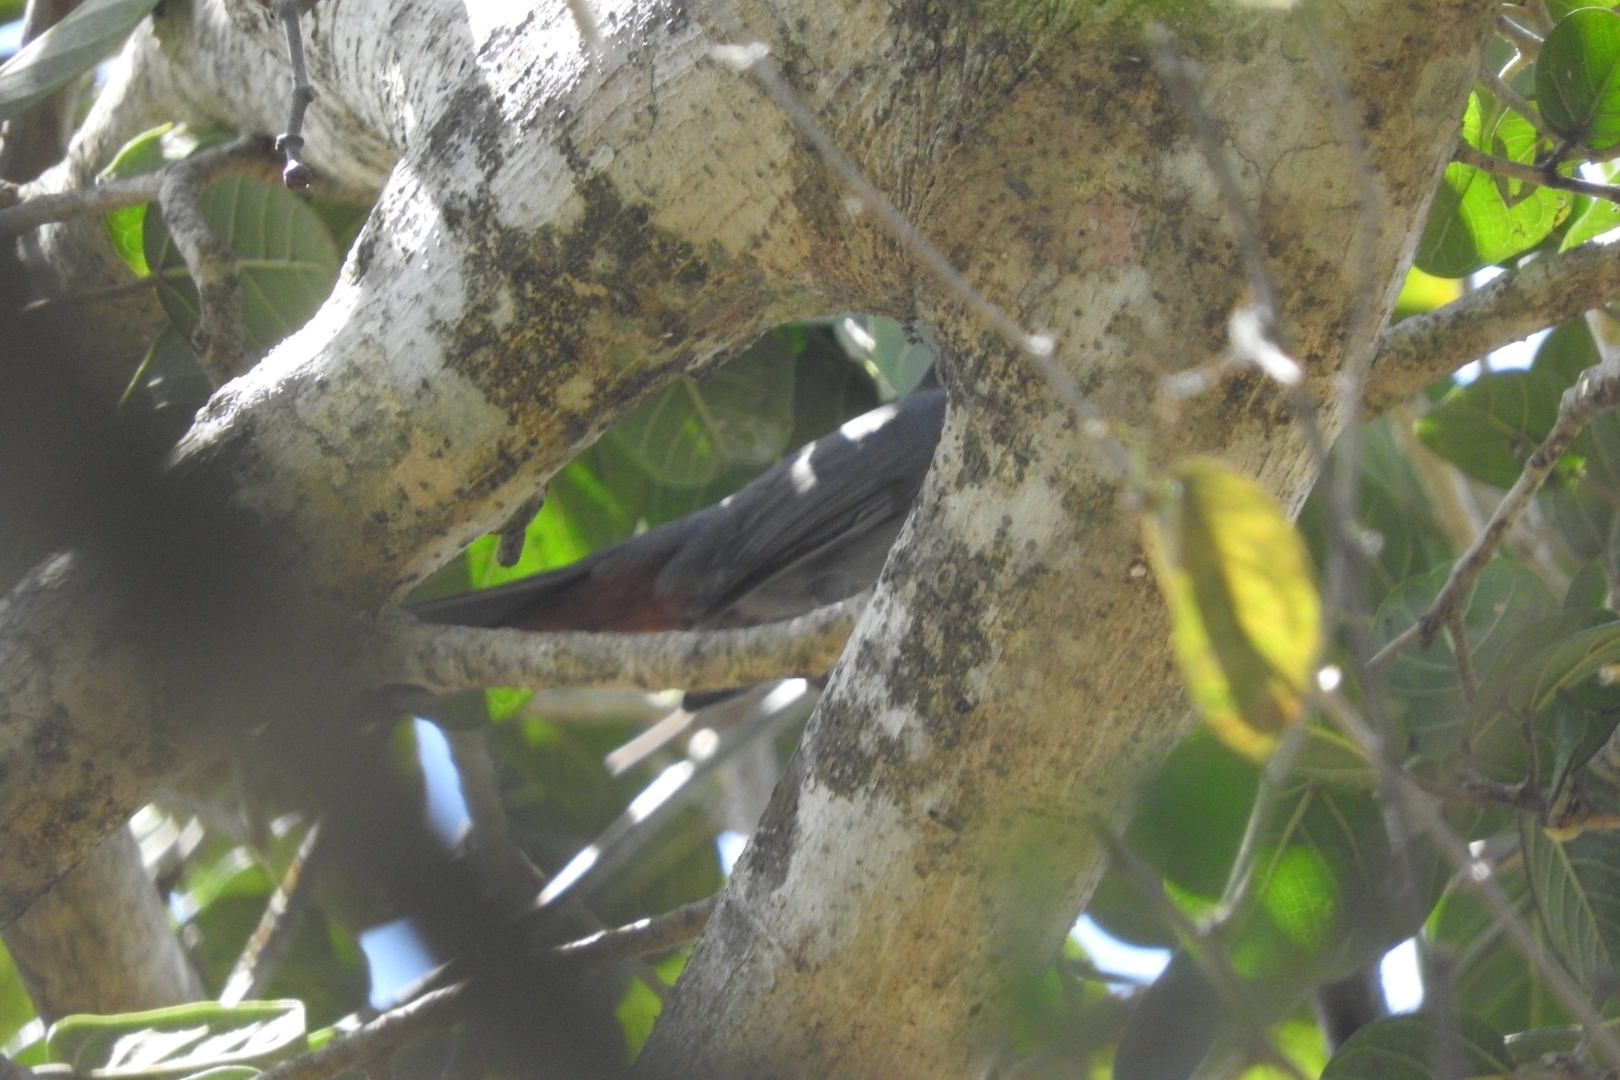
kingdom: Animalia
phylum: Chordata
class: Aves
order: Passeriformes
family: Mimidae
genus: Dumetella
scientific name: Dumetella carolinensis
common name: Gray catbird
